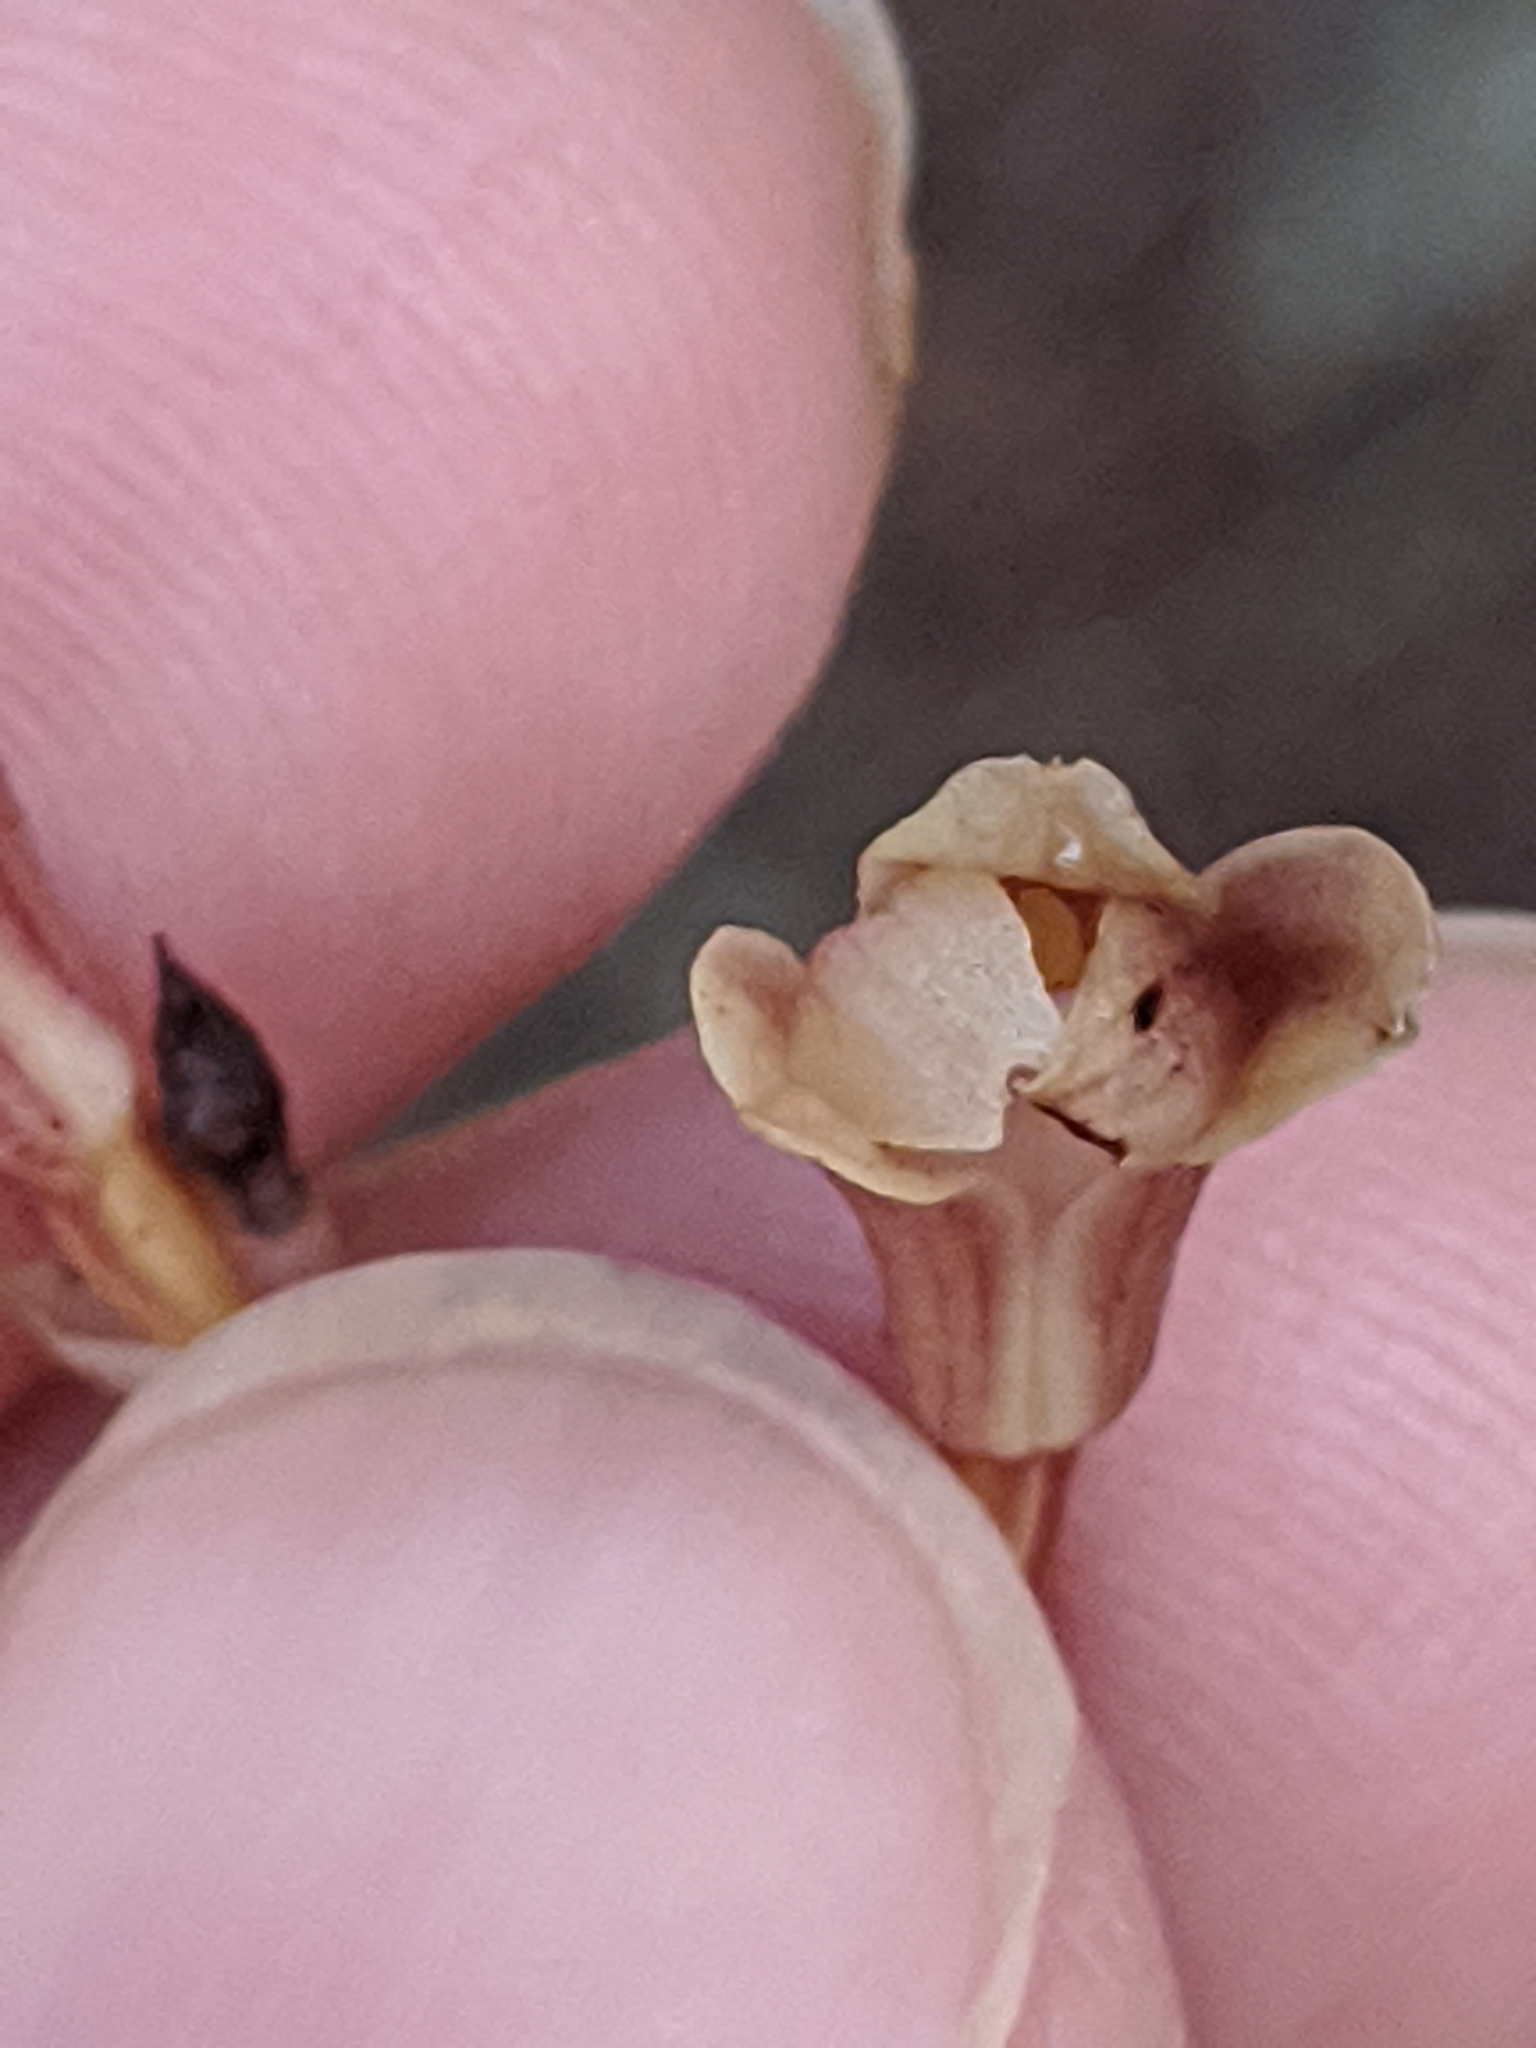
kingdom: Plantae
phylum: Tracheophyta
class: Liliopsida
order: Asparagales
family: Orchidaceae
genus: Bletia
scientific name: Bletia nitida
